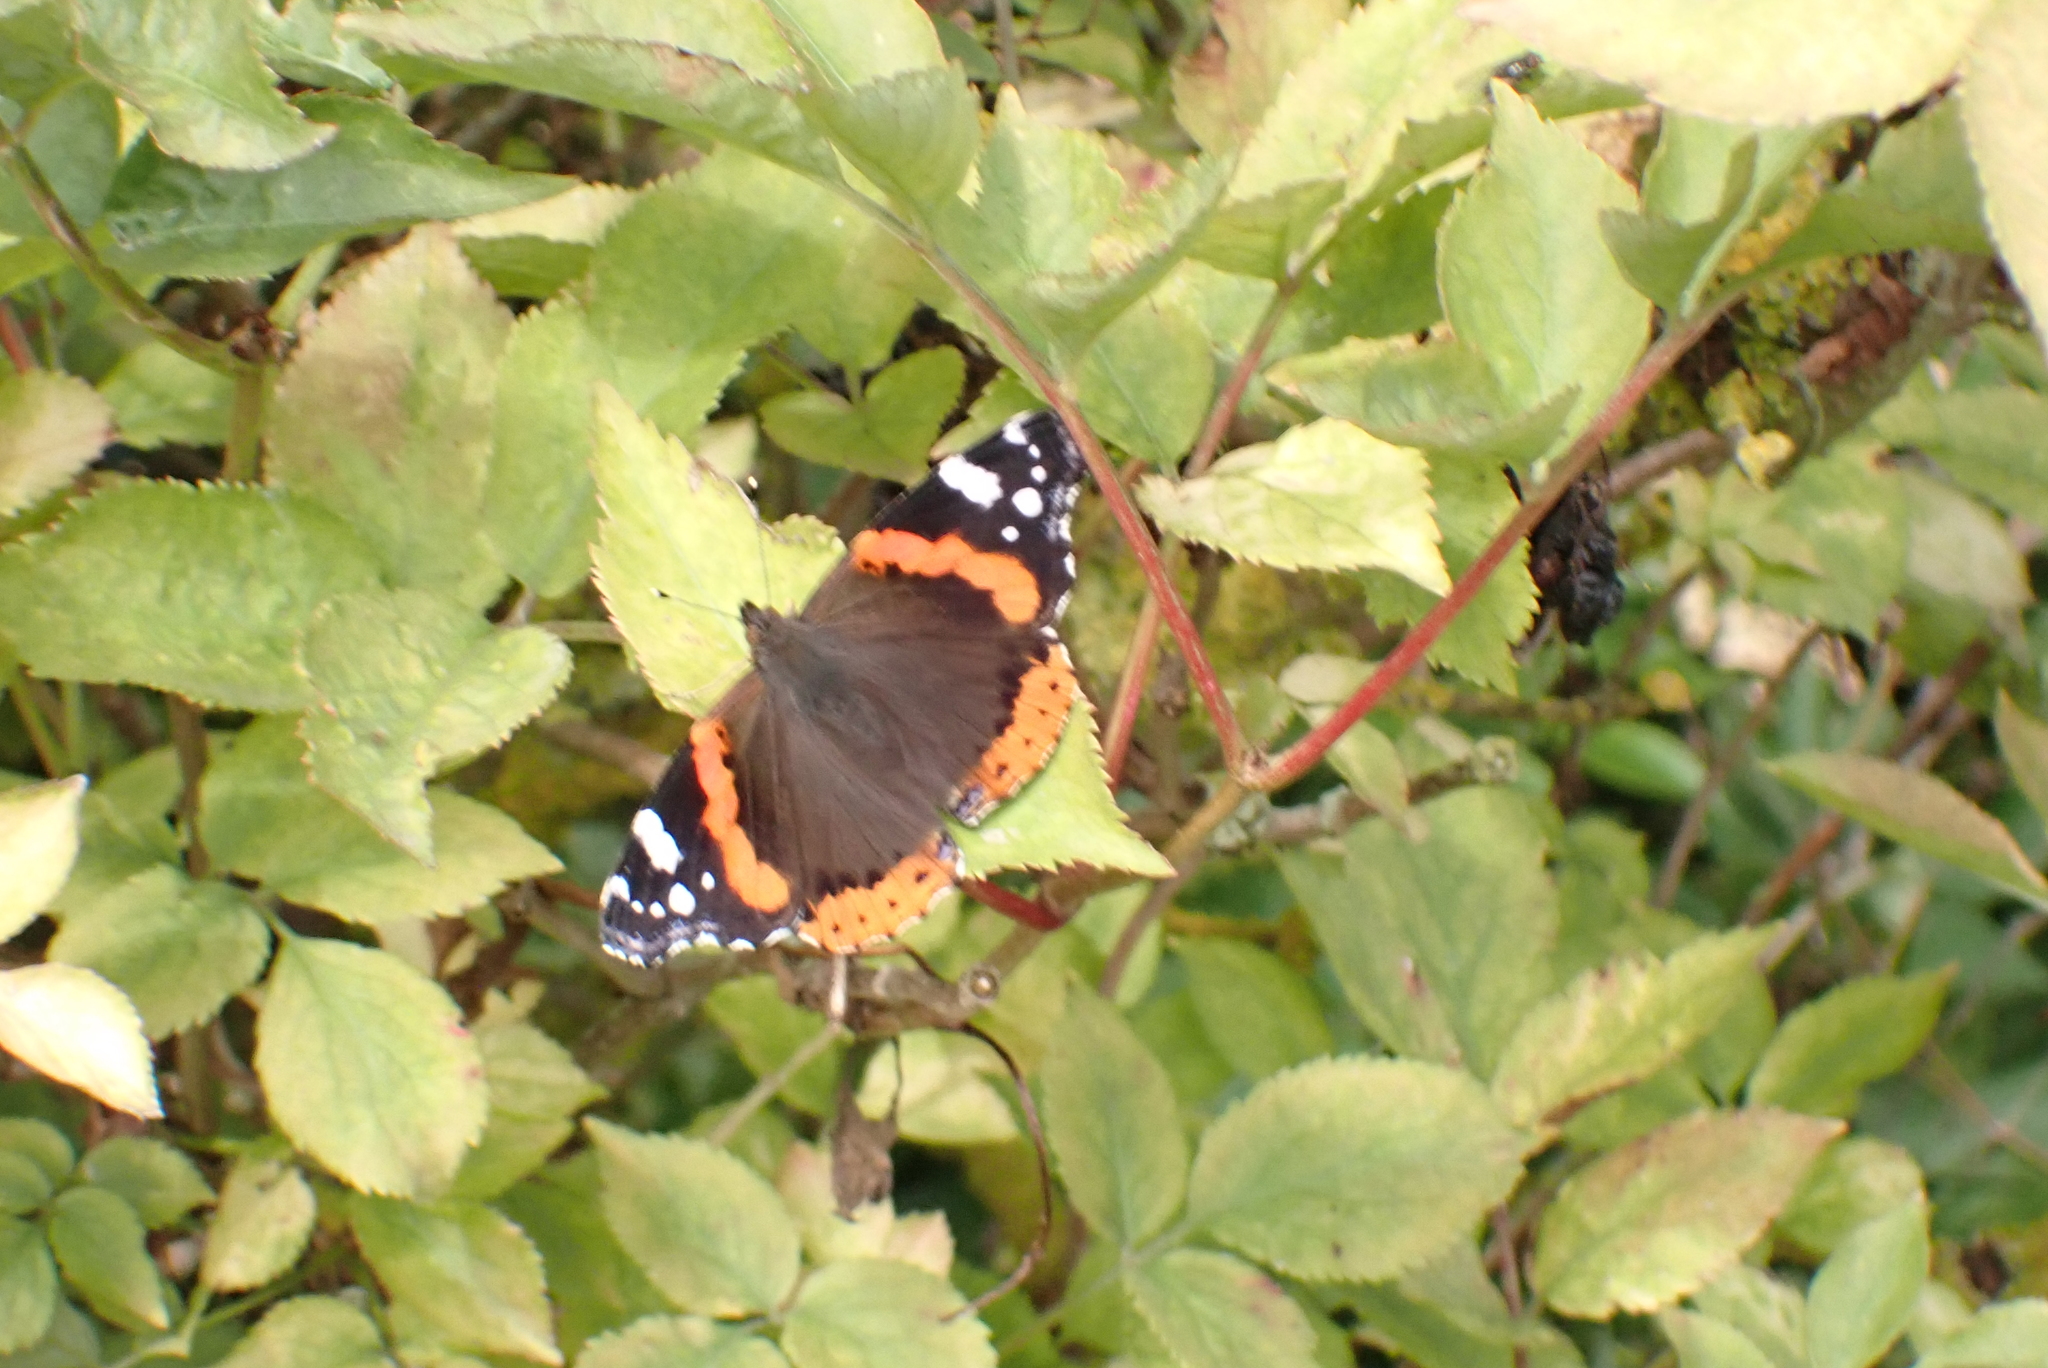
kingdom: Animalia
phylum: Arthropoda
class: Insecta
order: Lepidoptera
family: Nymphalidae
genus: Vanessa
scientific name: Vanessa atalanta
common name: Red admiral
